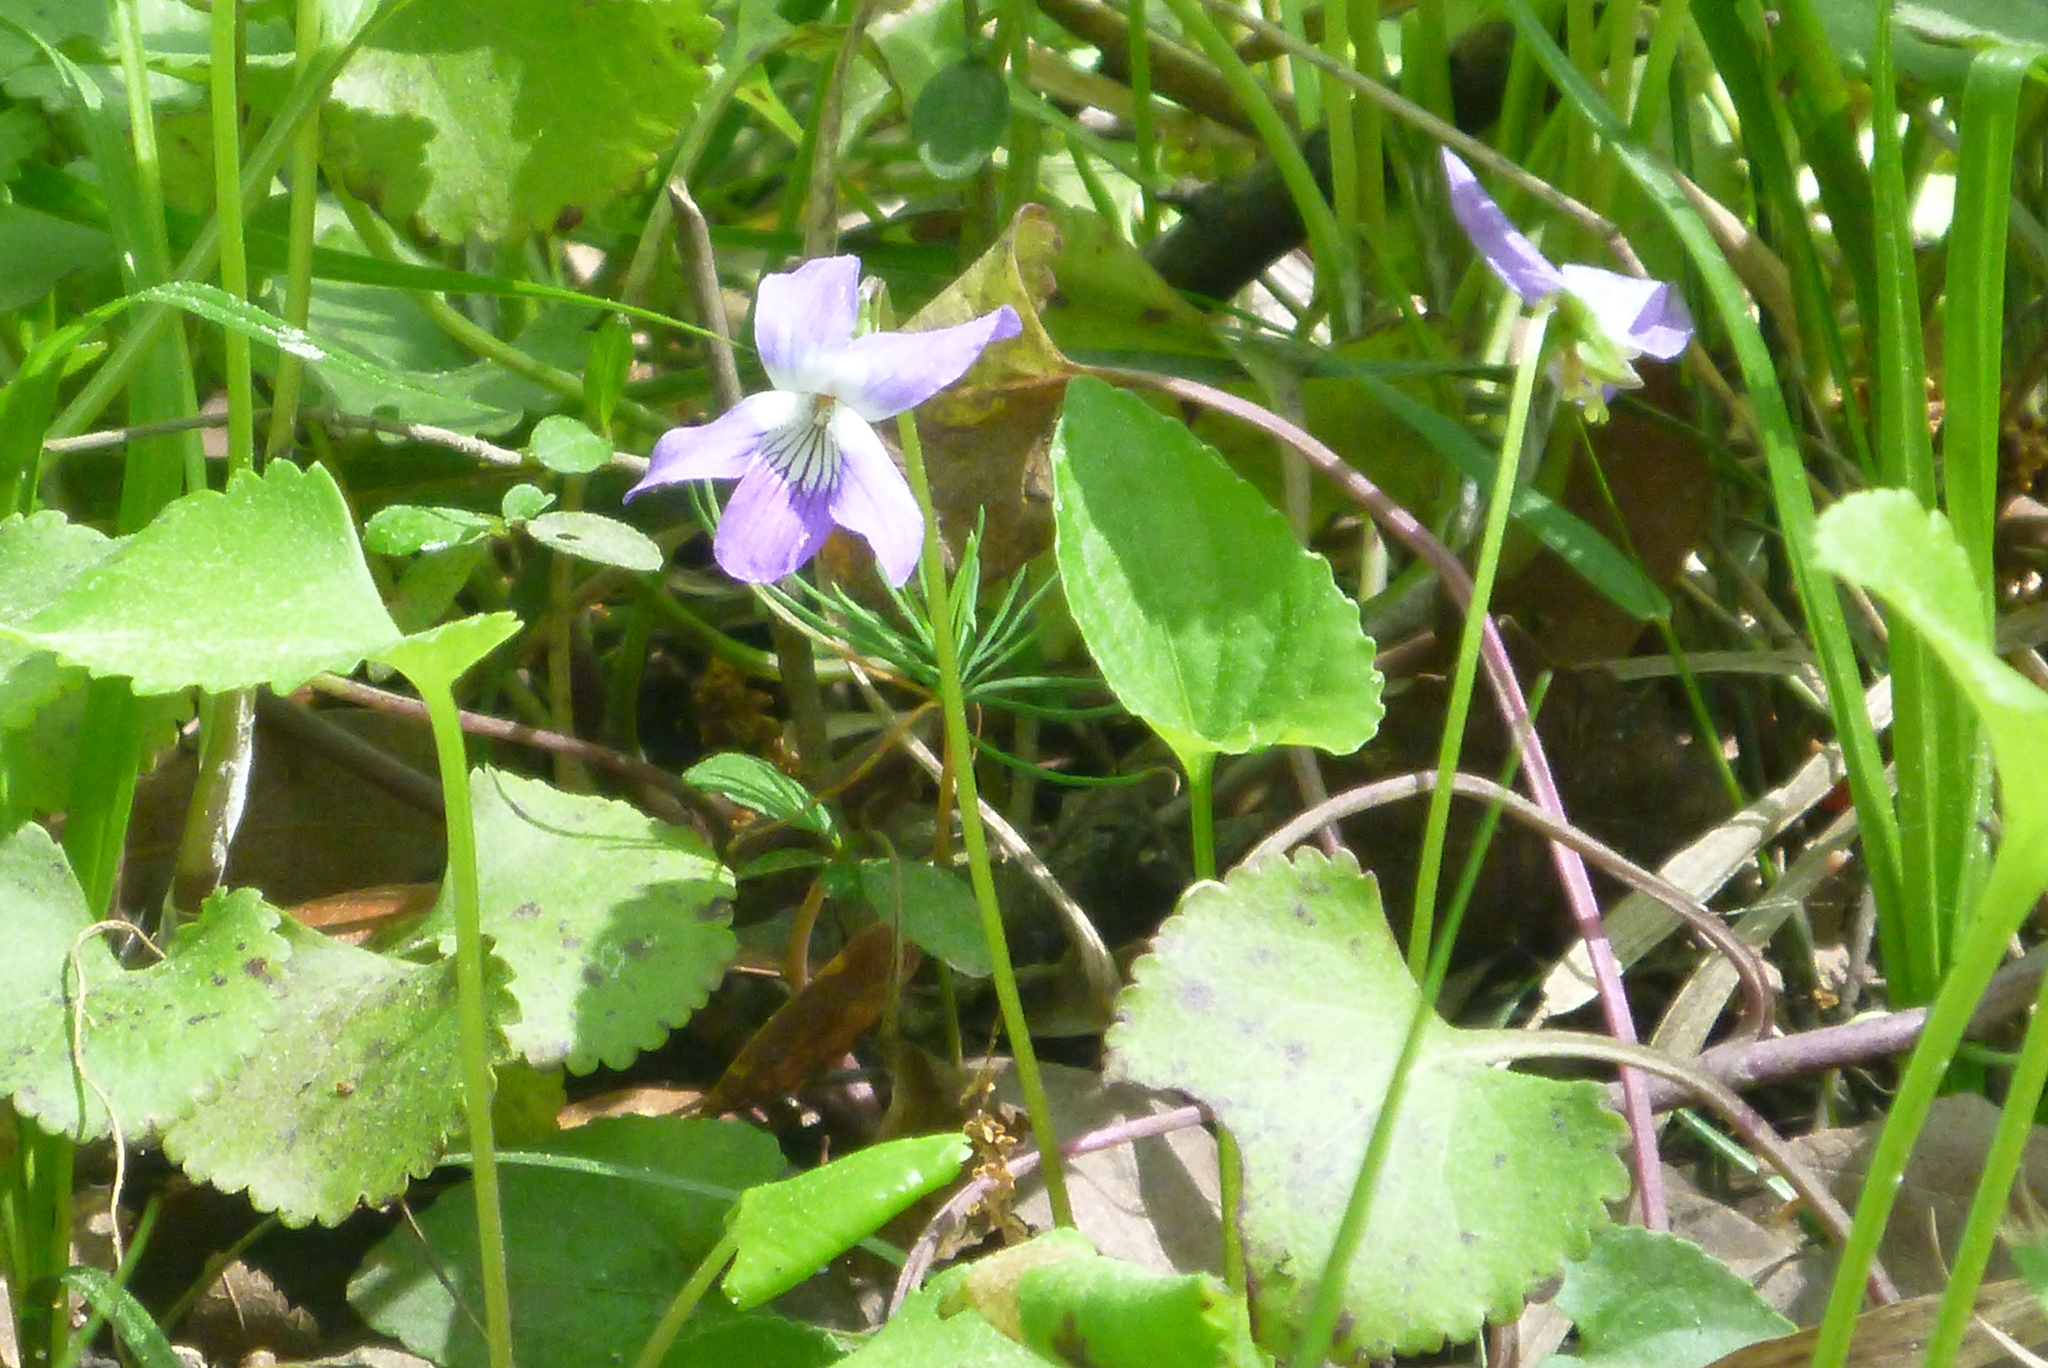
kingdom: Plantae
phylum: Tracheophyta
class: Magnoliopsida
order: Malpighiales
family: Violaceae
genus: Viola
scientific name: Viola sororia
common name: Dooryard violet
